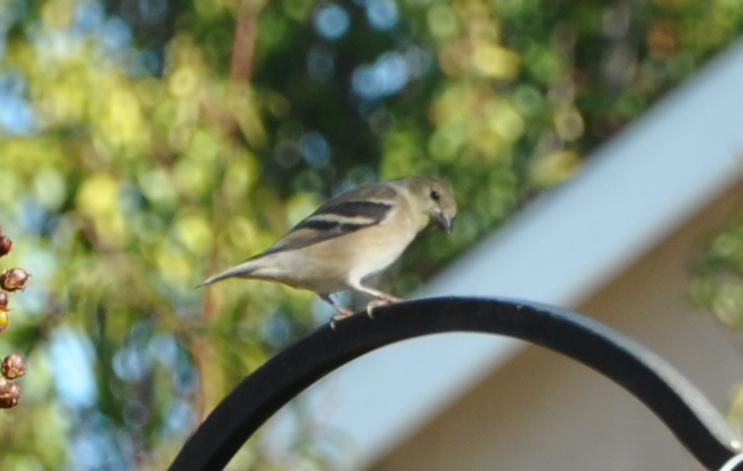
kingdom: Animalia
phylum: Chordata
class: Aves
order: Passeriformes
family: Fringillidae
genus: Spinus
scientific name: Spinus tristis
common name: American goldfinch
